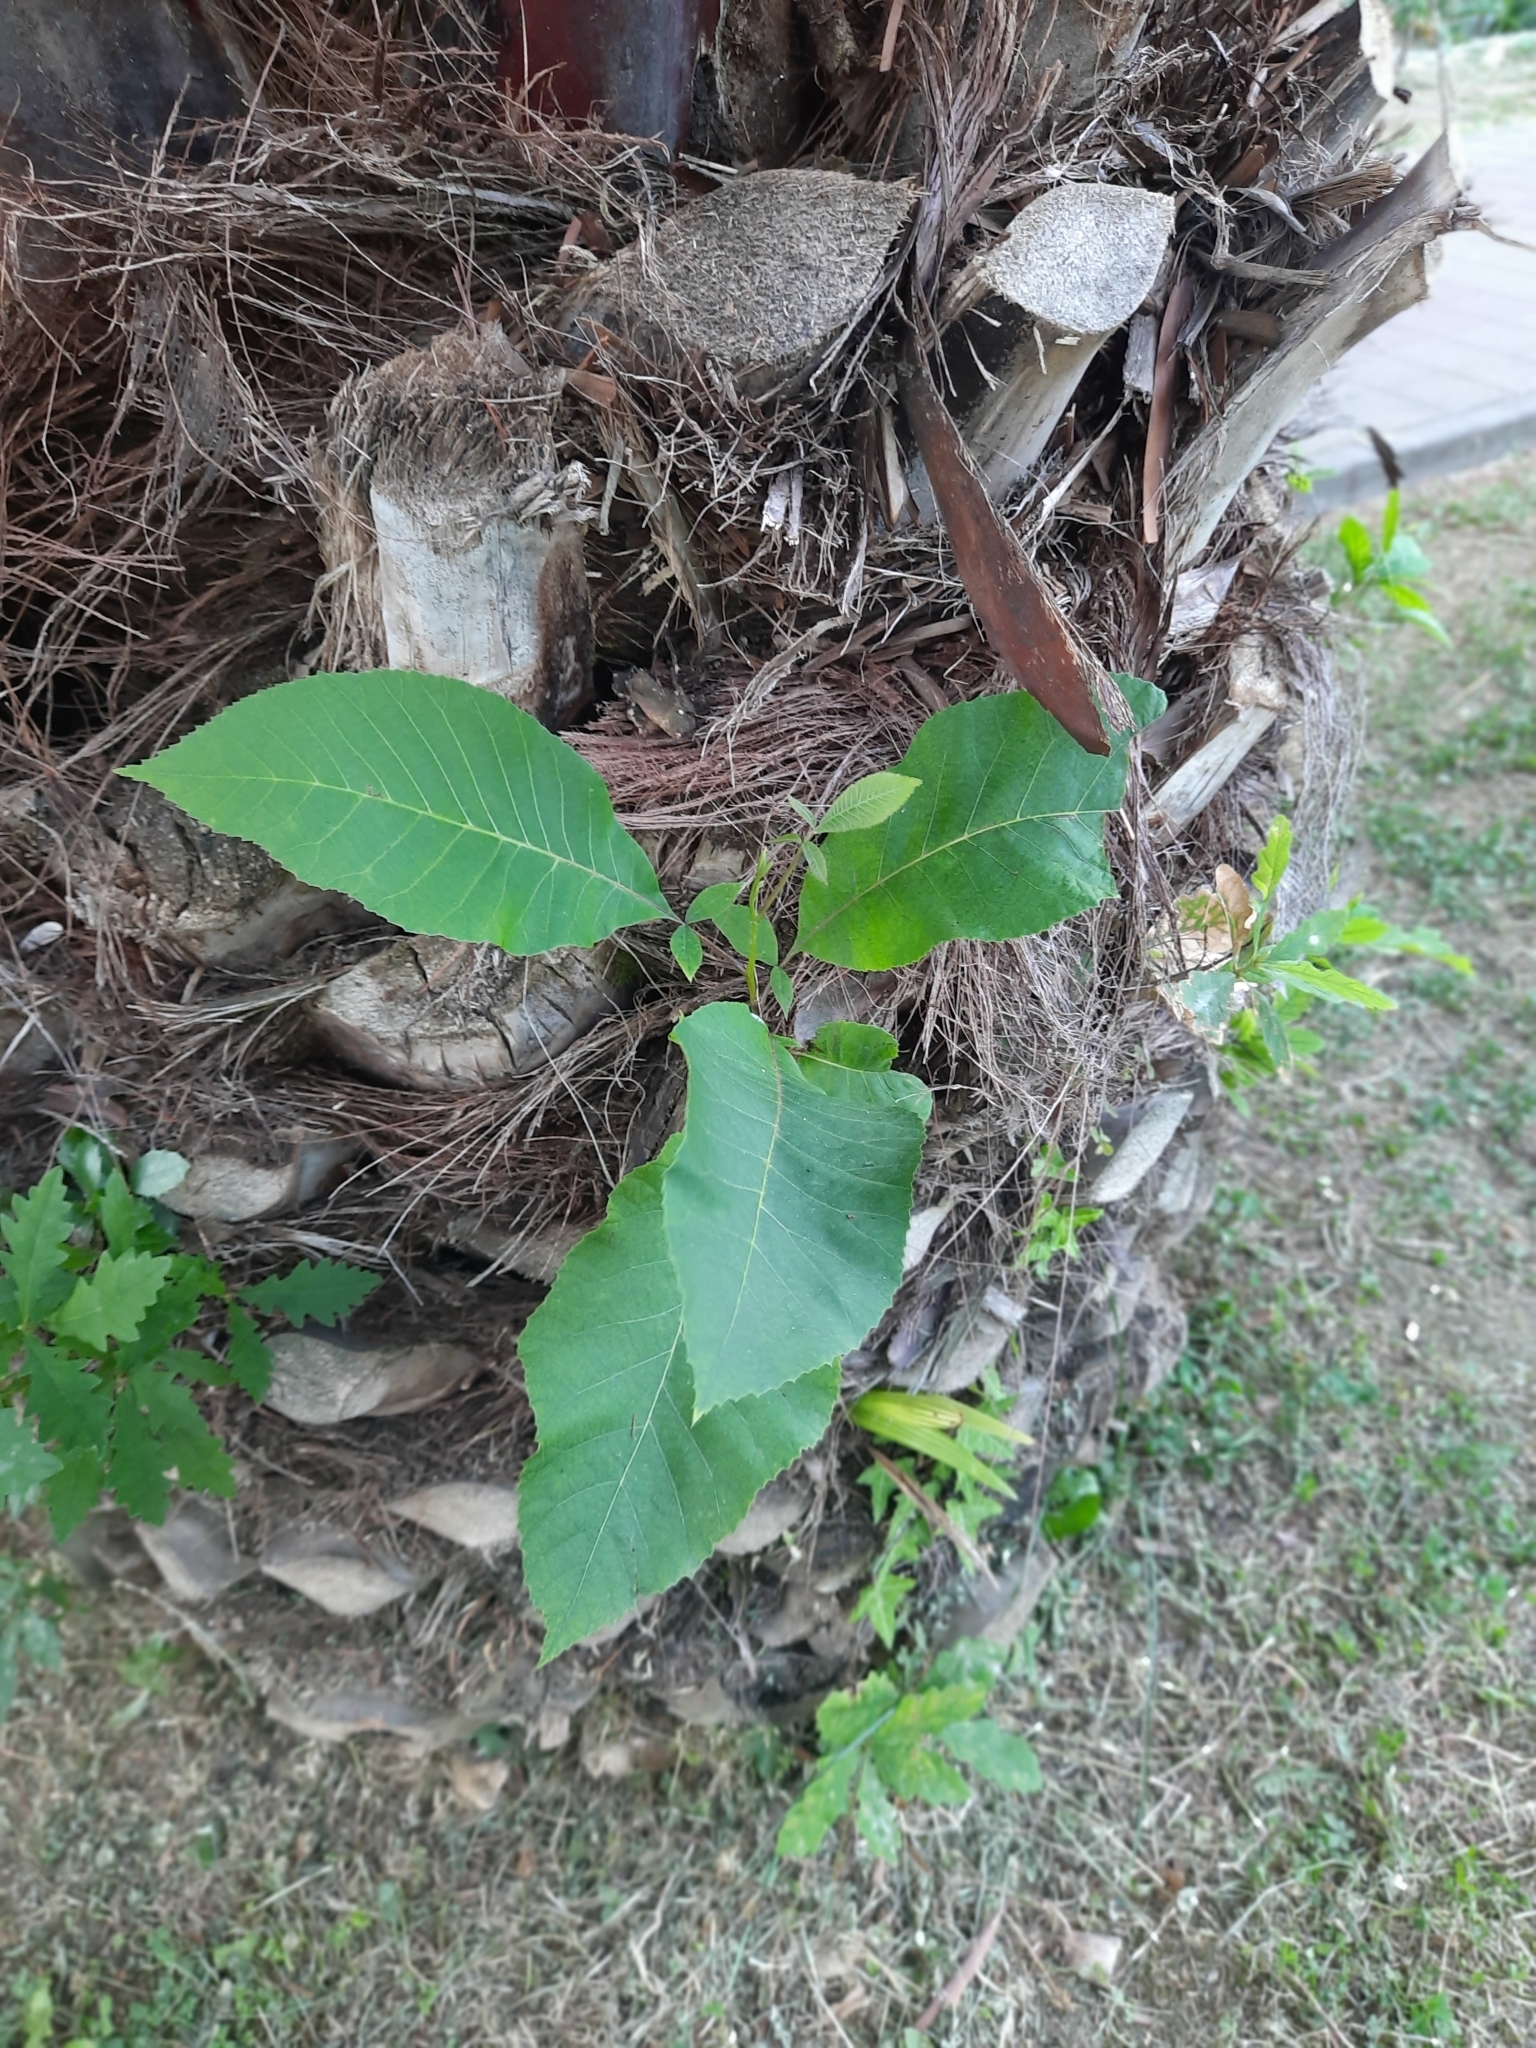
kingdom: Plantae
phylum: Tracheophyta
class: Magnoliopsida
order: Fagales
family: Fagaceae
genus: Castanea
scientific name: Castanea sativa
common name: Sweet chestnut
